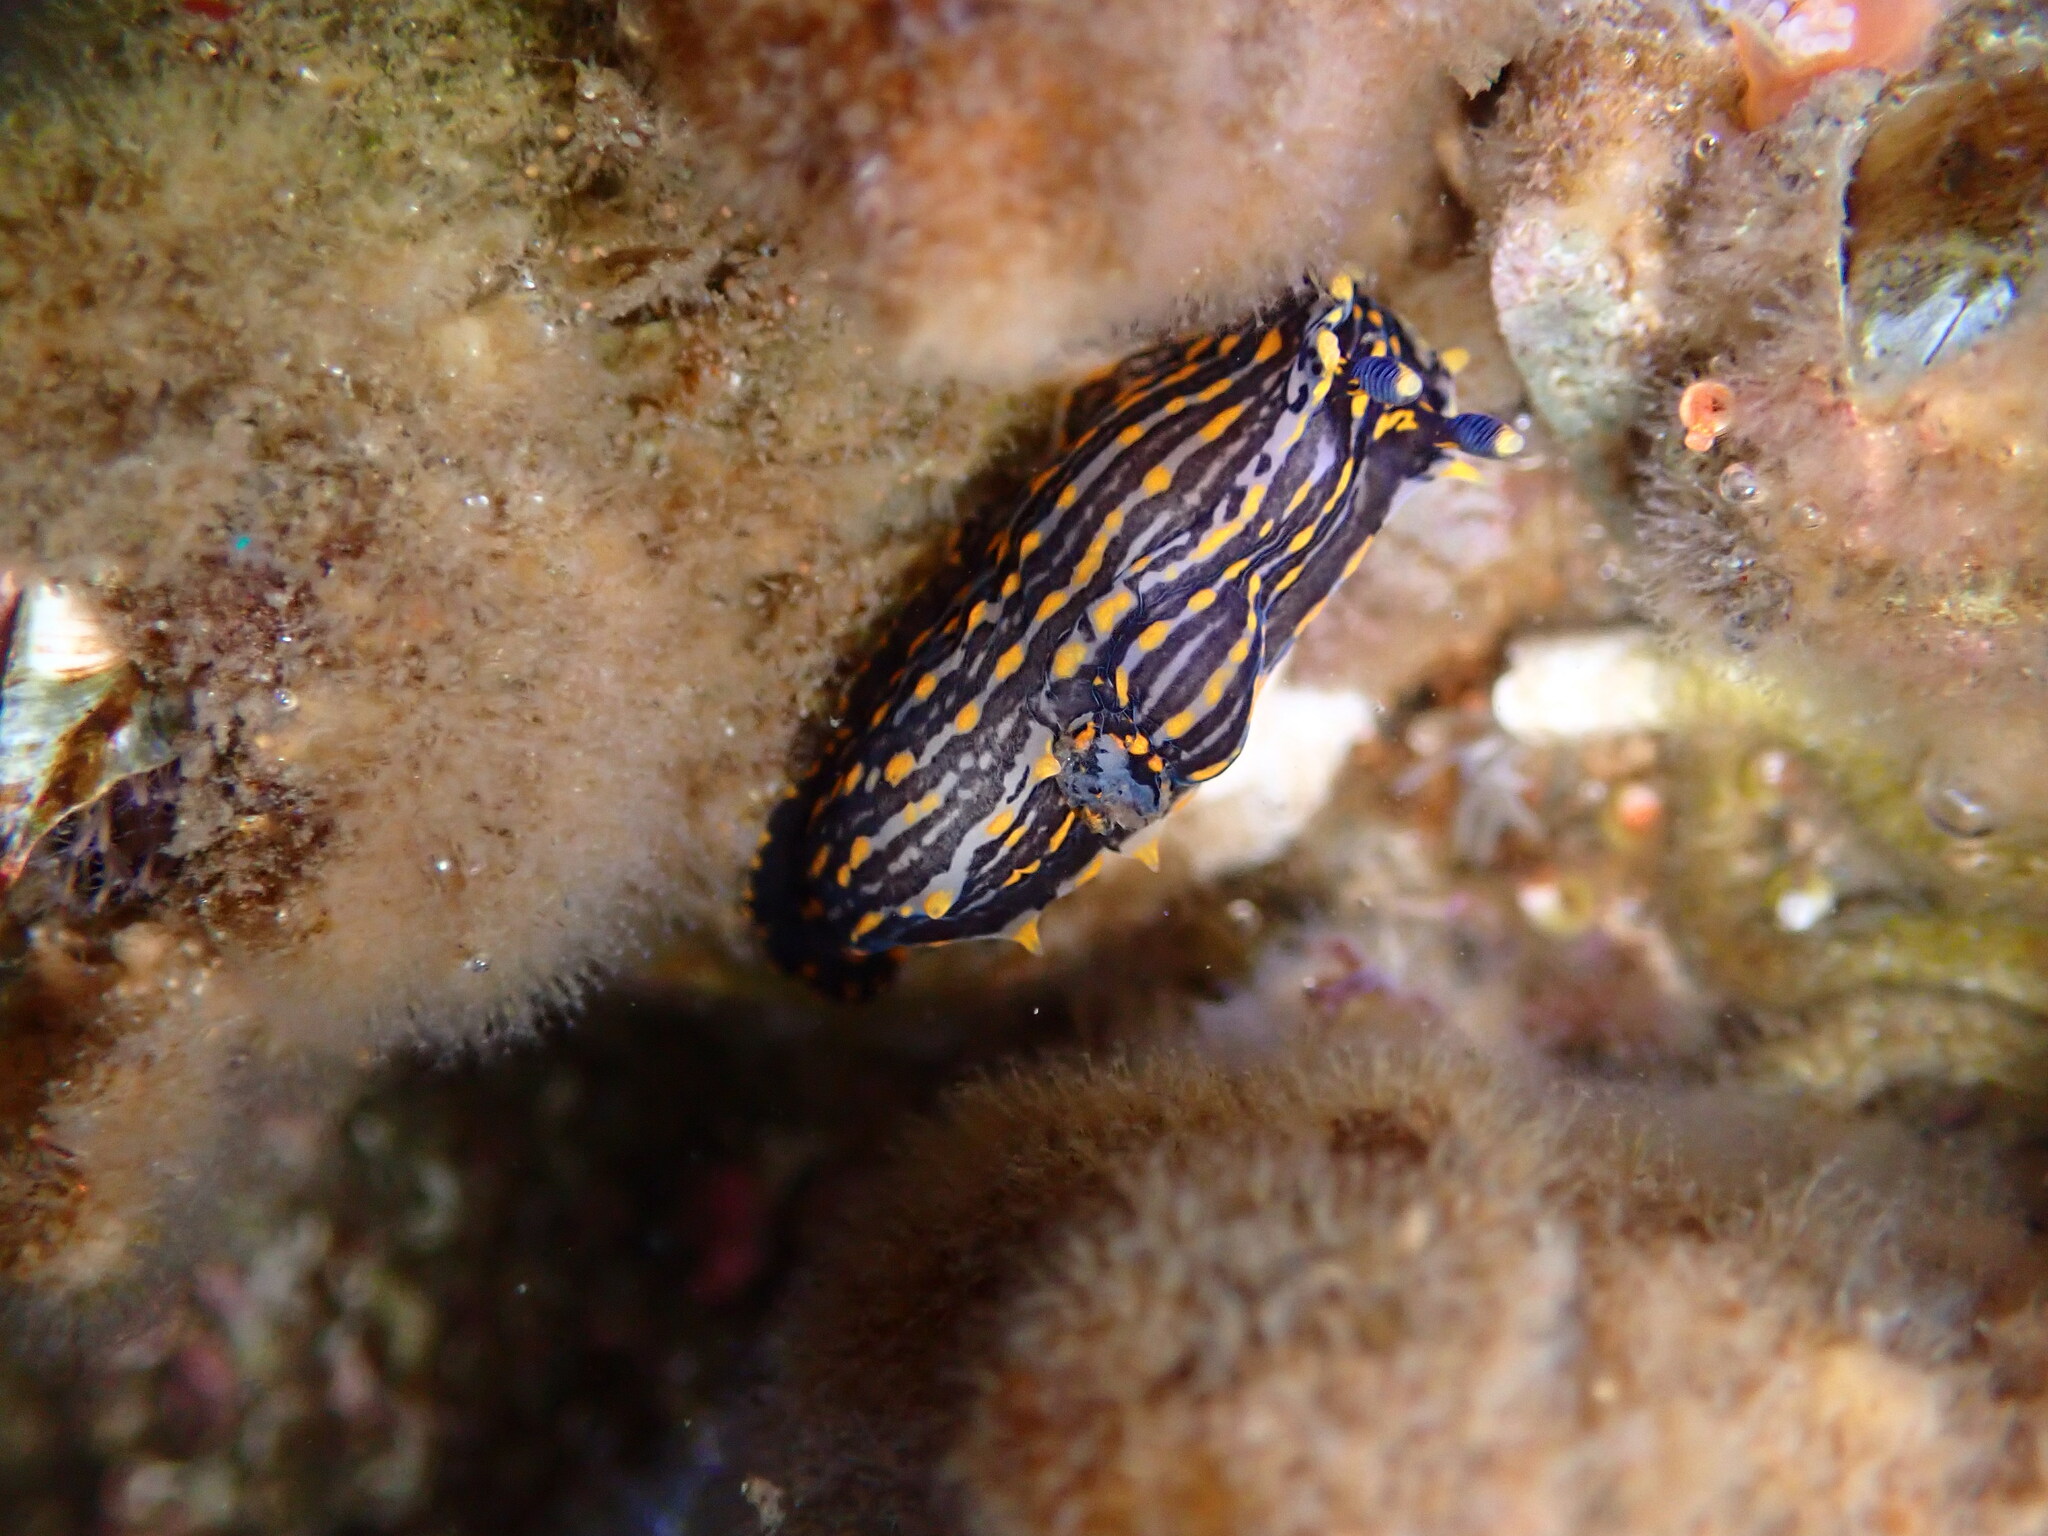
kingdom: Animalia
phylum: Mollusca
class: Gastropoda
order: Nudibranchia
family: Polyceridae
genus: Polycera
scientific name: Polycera atra
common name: Orange-spike polycera
